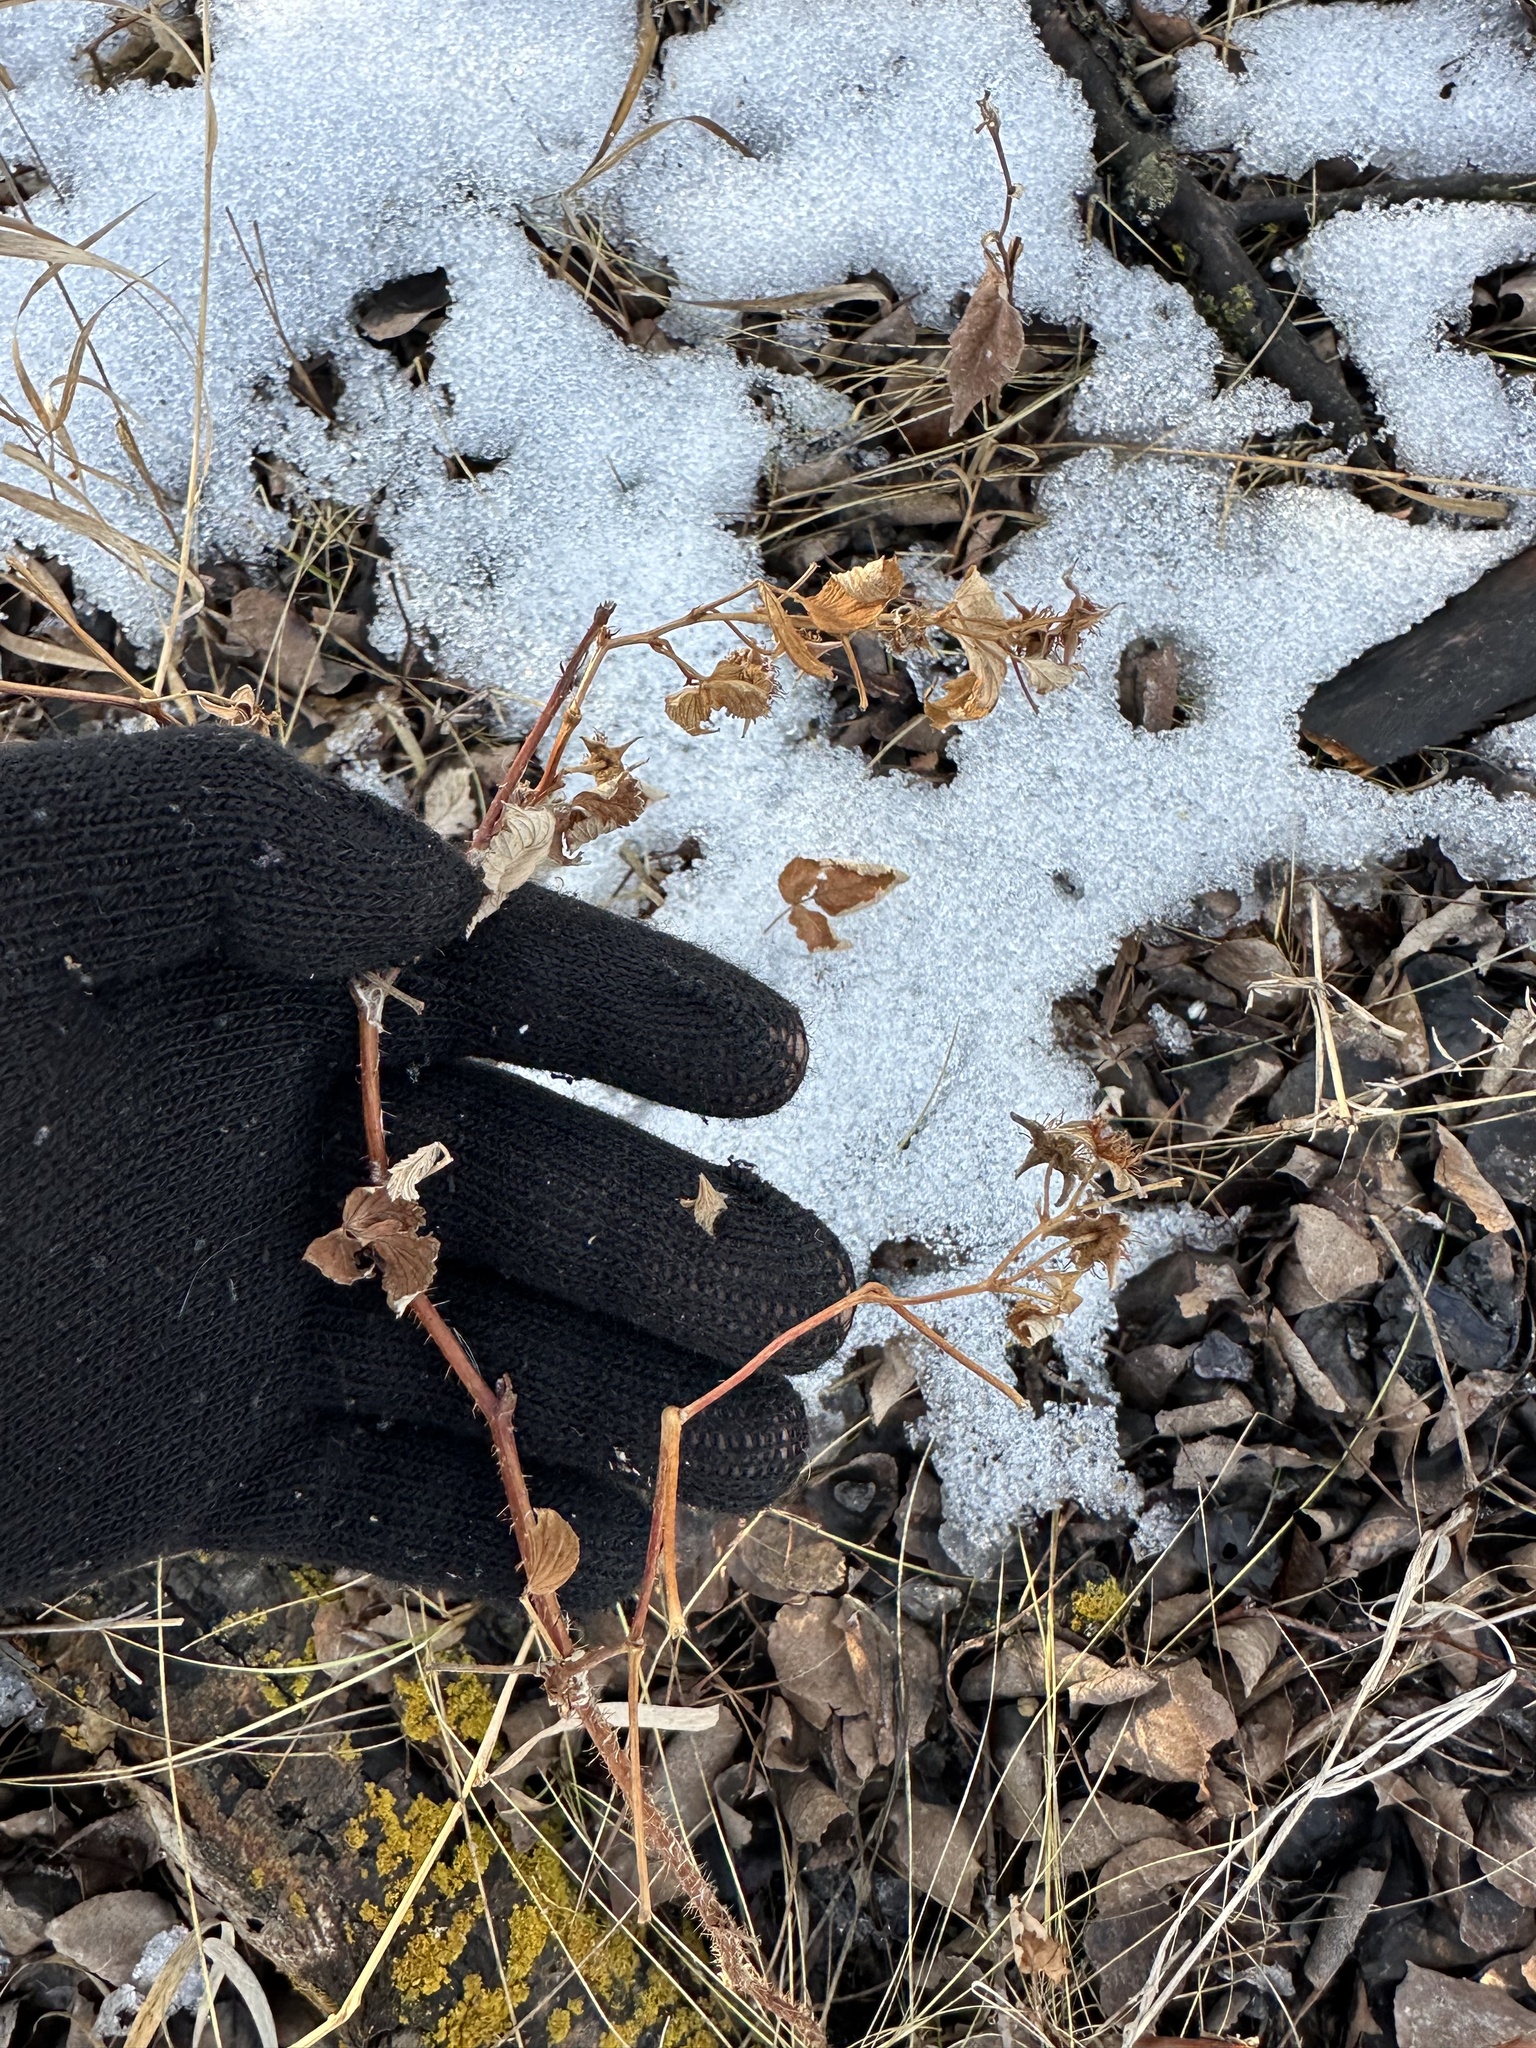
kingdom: Plantae
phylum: Tracheophyta
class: Magnoliopsida
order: Rosales
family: Rosaceae
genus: Rubus
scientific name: Rubus idaeus
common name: Raspberry
